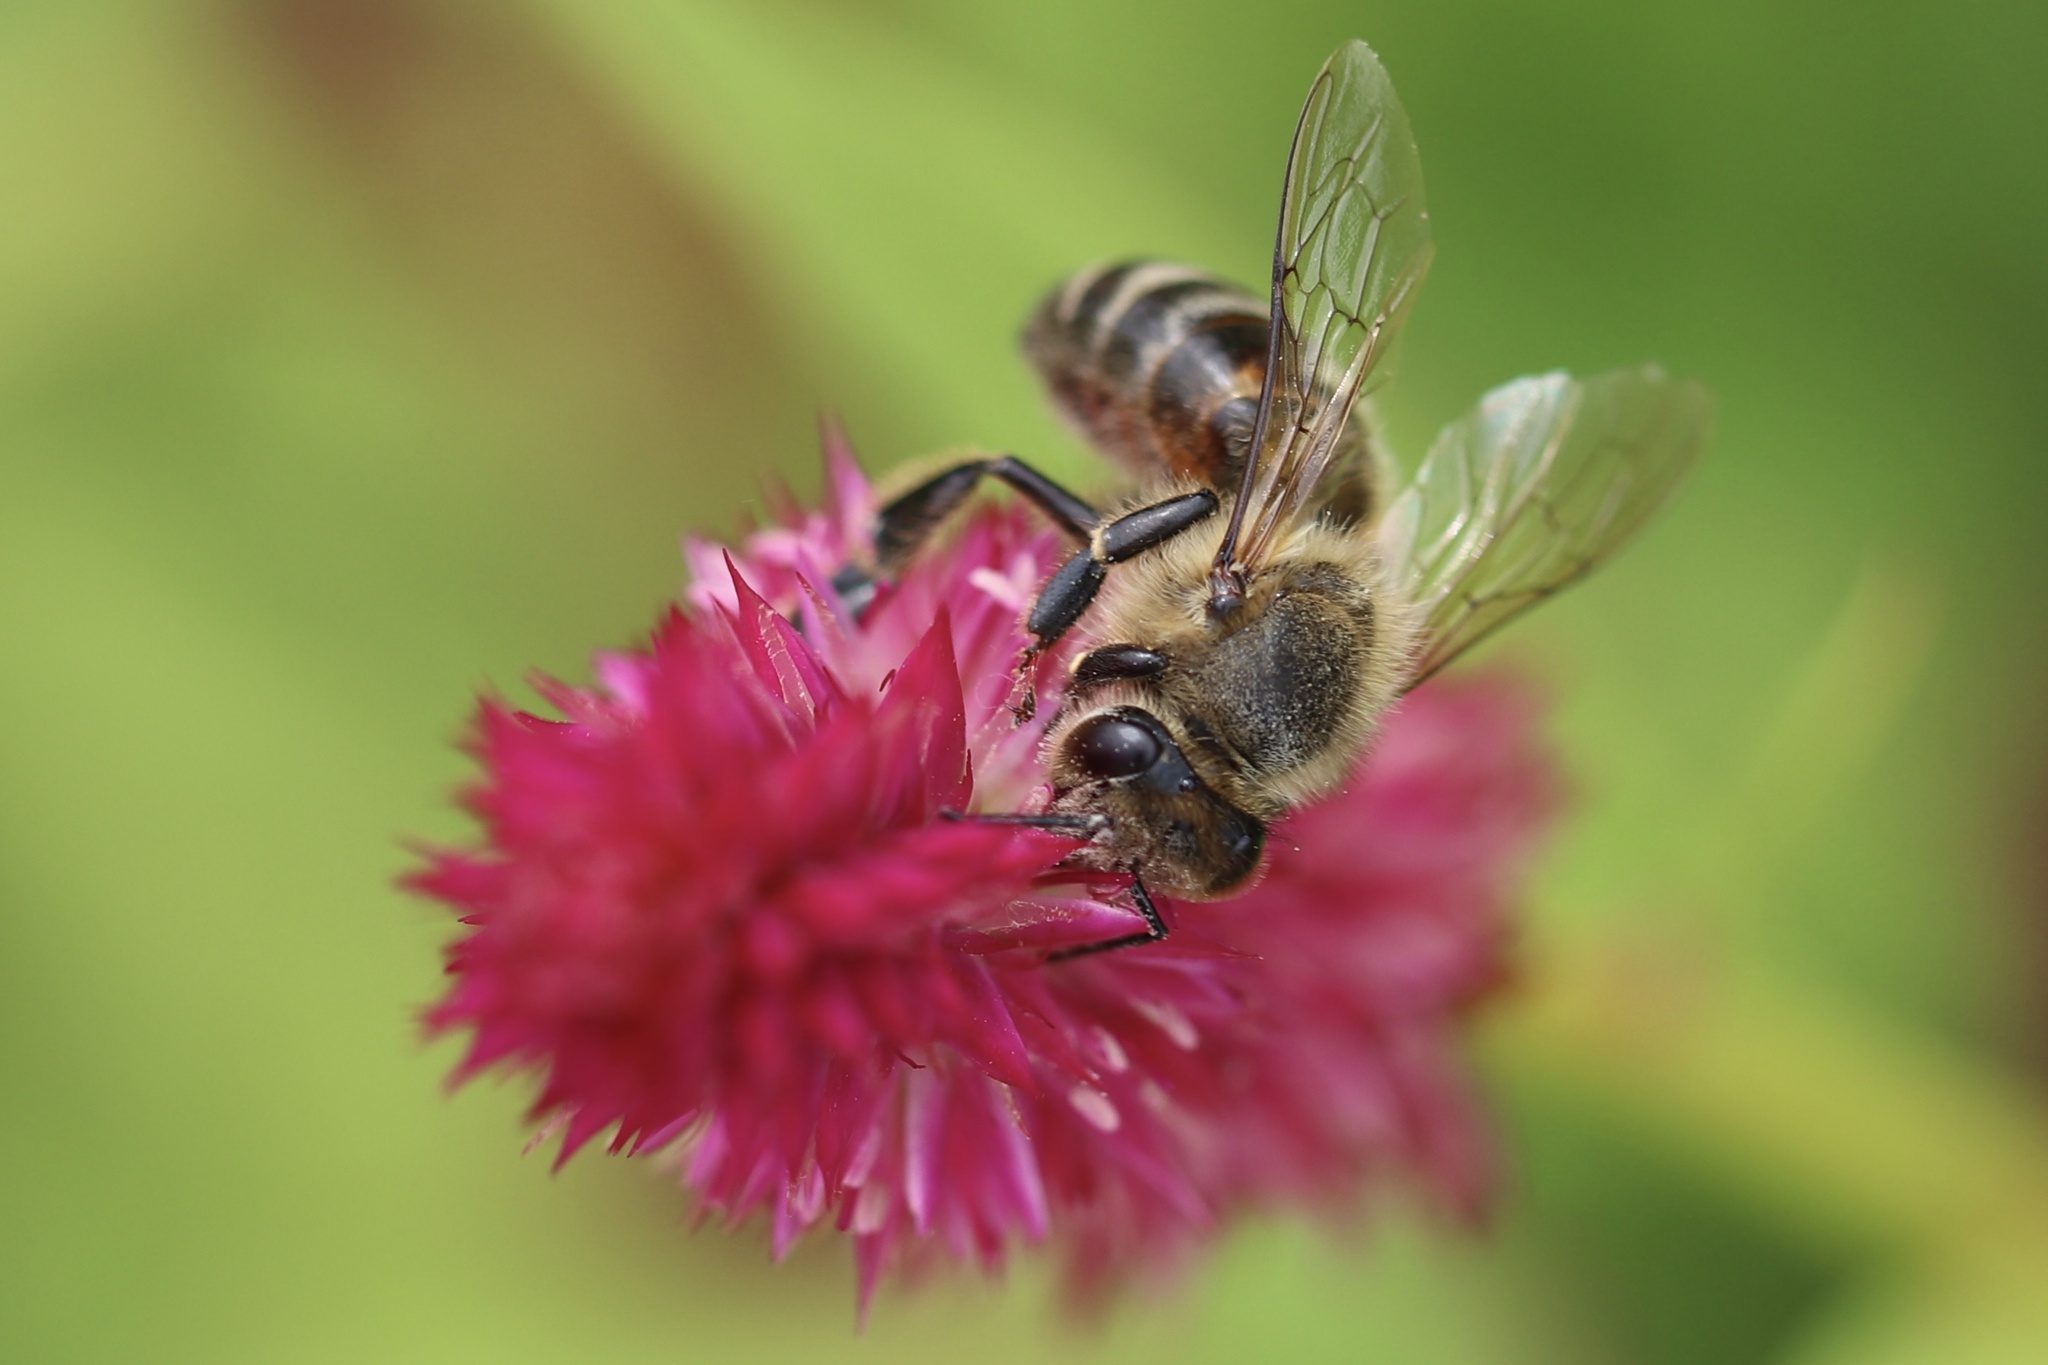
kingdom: Animalia
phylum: Arthropoda
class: Insecta
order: Hymenoptera
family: Apidae
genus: Apis
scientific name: Apis mellifera
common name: Honey bee
